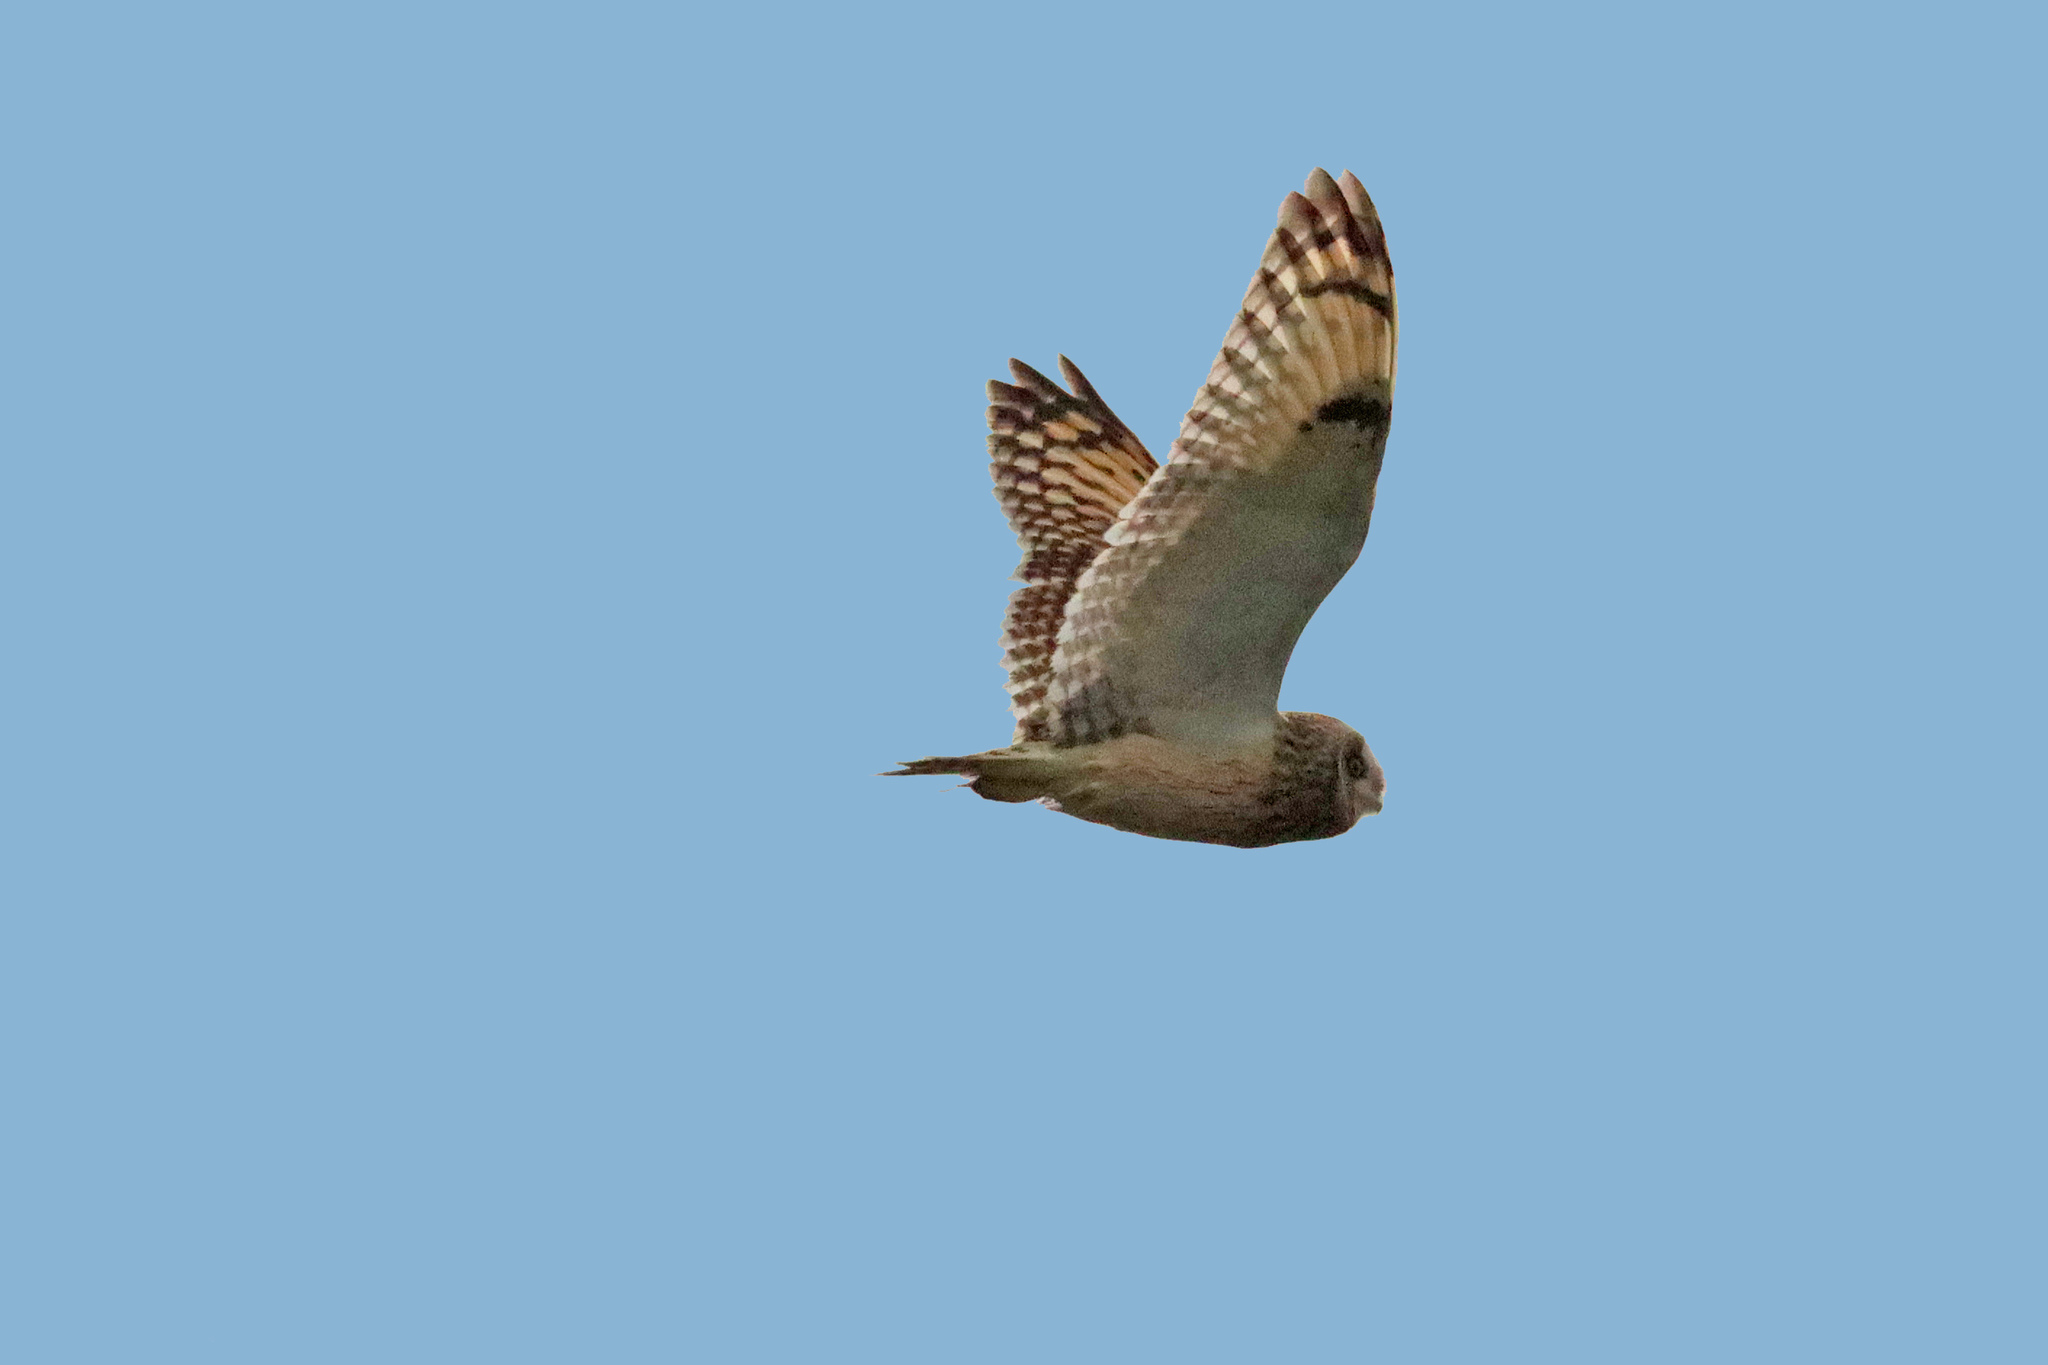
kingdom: Animalia
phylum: Chordata
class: Aves
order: Strigiformes
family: Strigidae
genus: Asio
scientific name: Asio flammeus
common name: Short-eared owl
